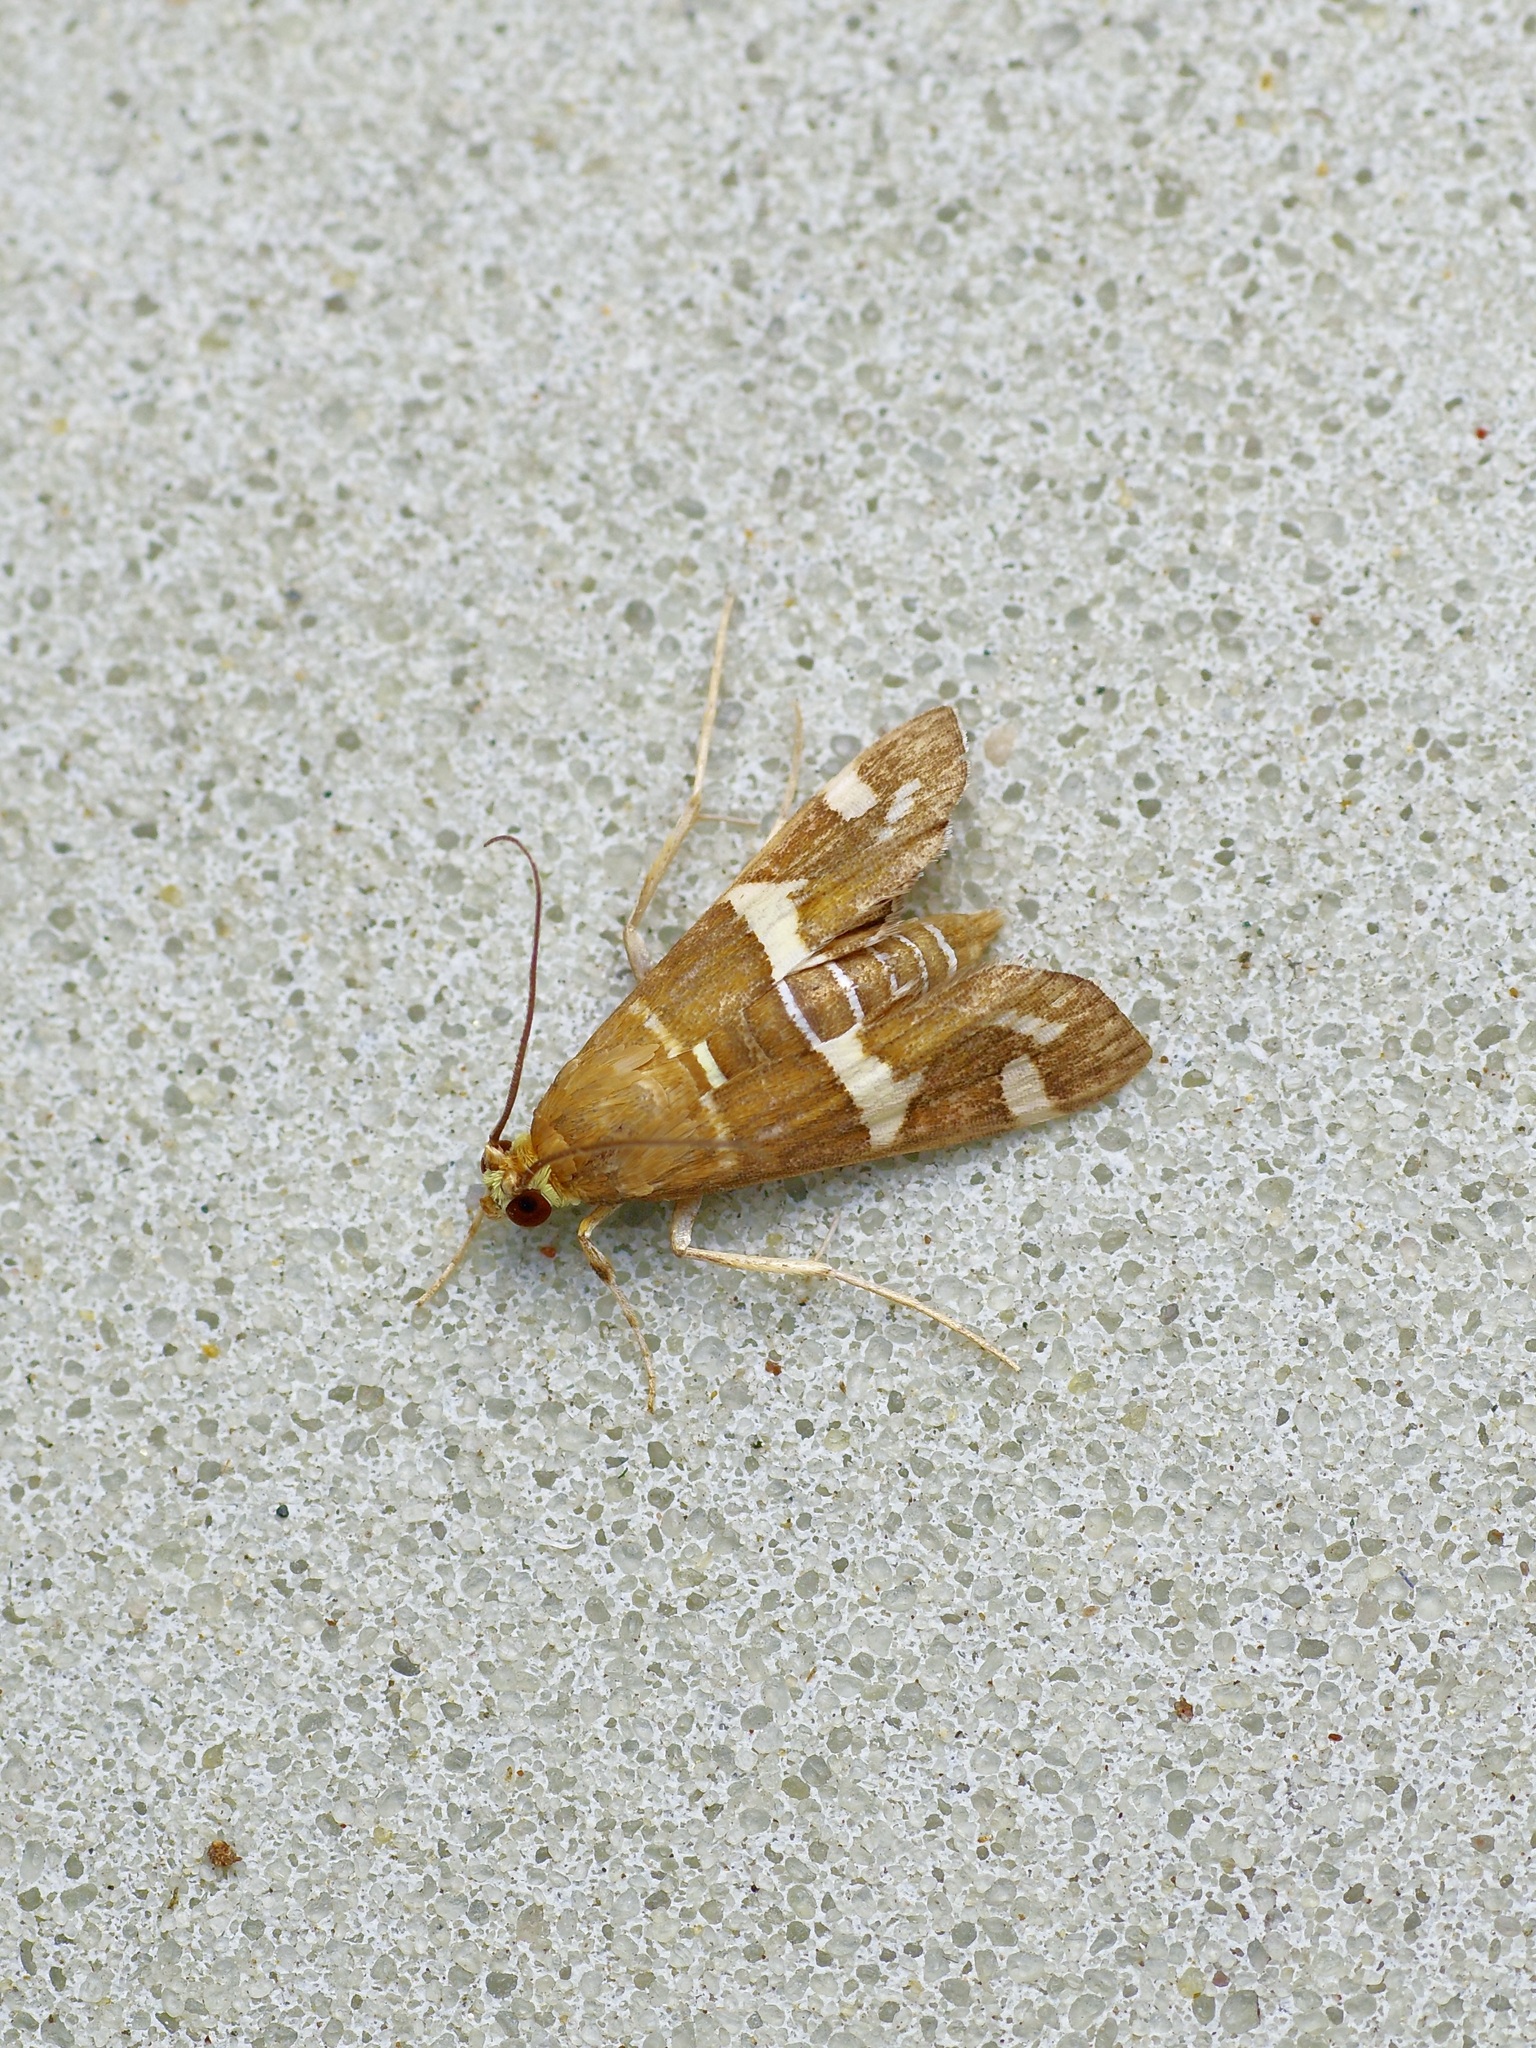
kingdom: Animalia
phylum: Arthropoda
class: Insecta
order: Lepidoptera
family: Crambidae
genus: Spoladea
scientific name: Spoladea recurvalis
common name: Beet webworm moth
